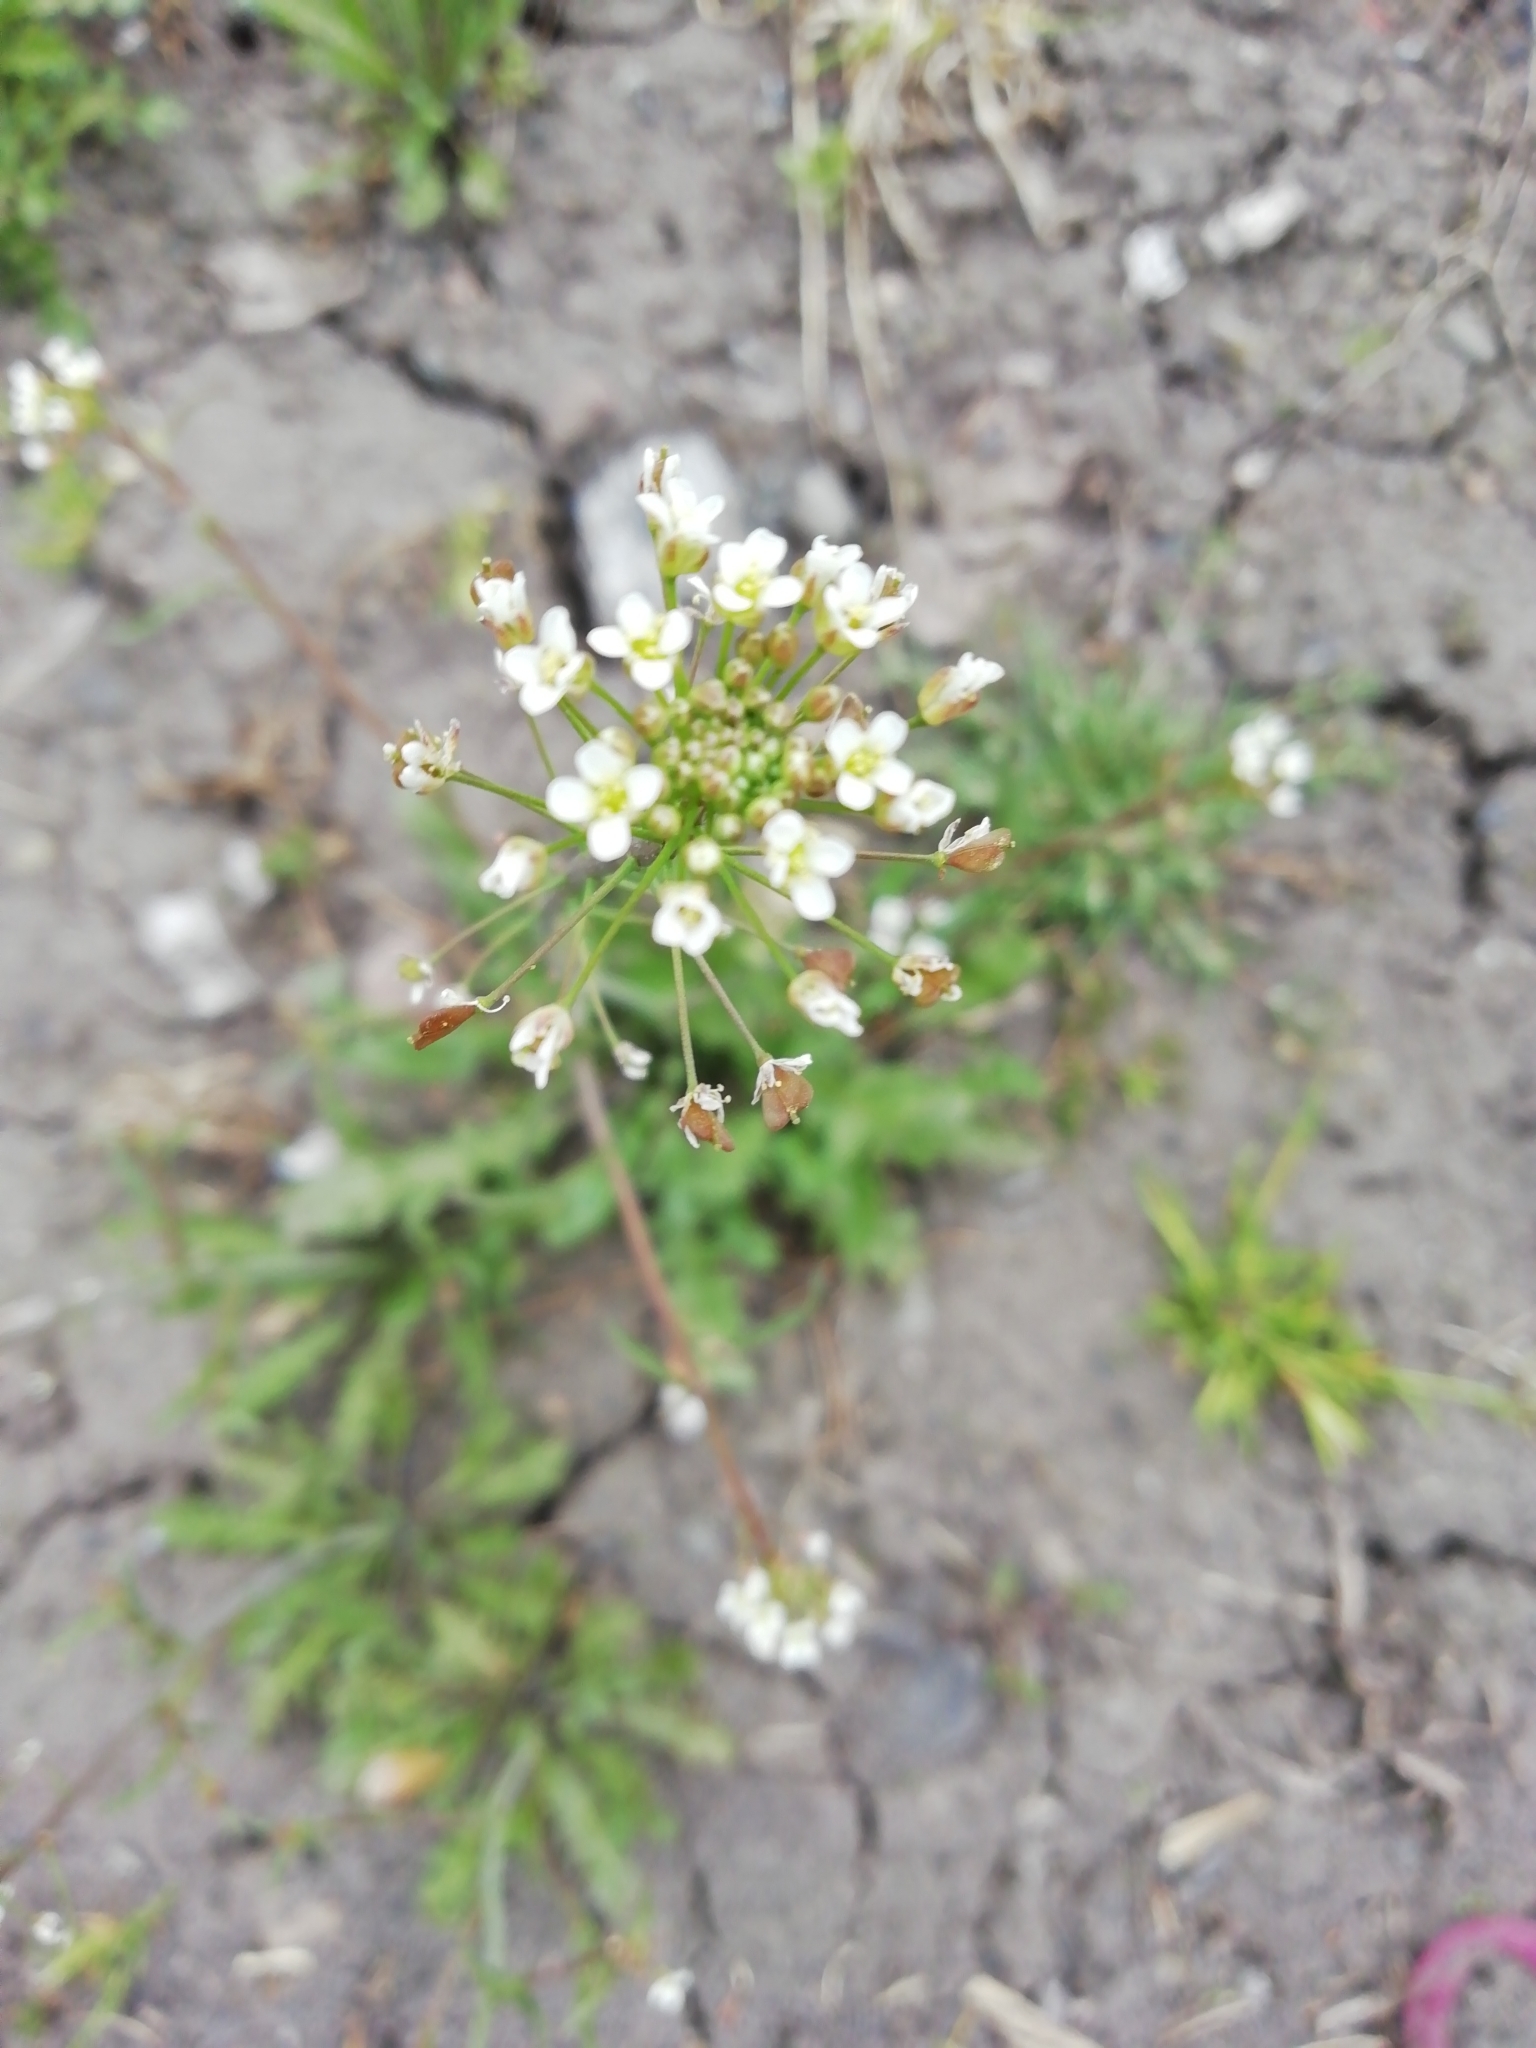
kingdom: Plantae
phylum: Tracheophyta
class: Magnoliopsida
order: Brassicales
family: Brassicaceae
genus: Capsella
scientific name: Capsella bursa-pastoris
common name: Shepherd's purse
